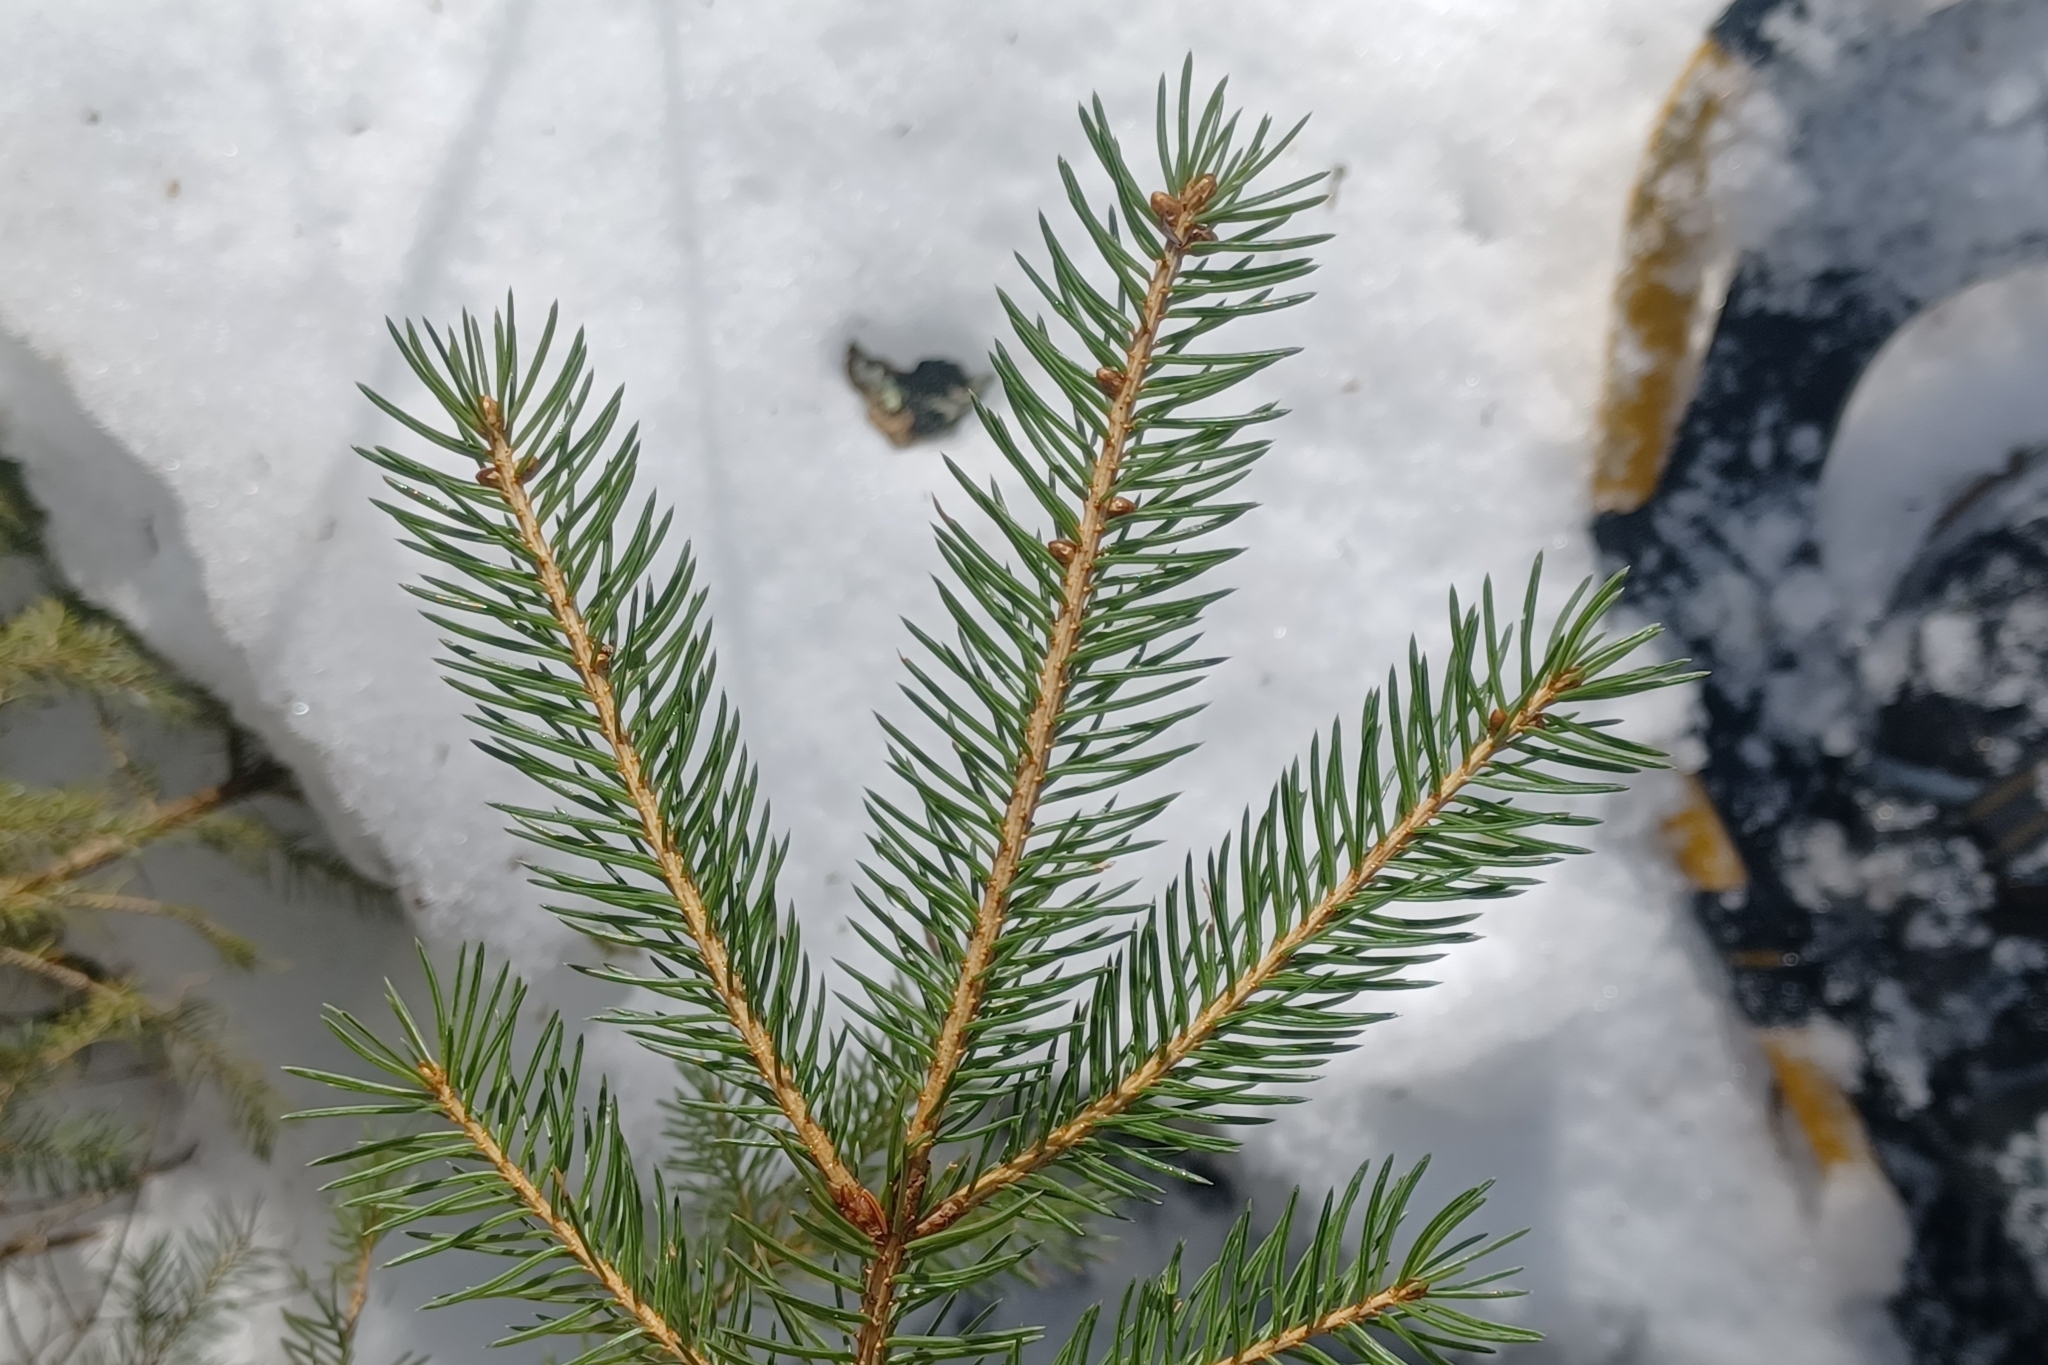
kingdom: Plantae
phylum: Tracheophyta
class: Pinopsida
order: Pinales
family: Pinaceae
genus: Picea
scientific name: Picea glauca
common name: White spruce
